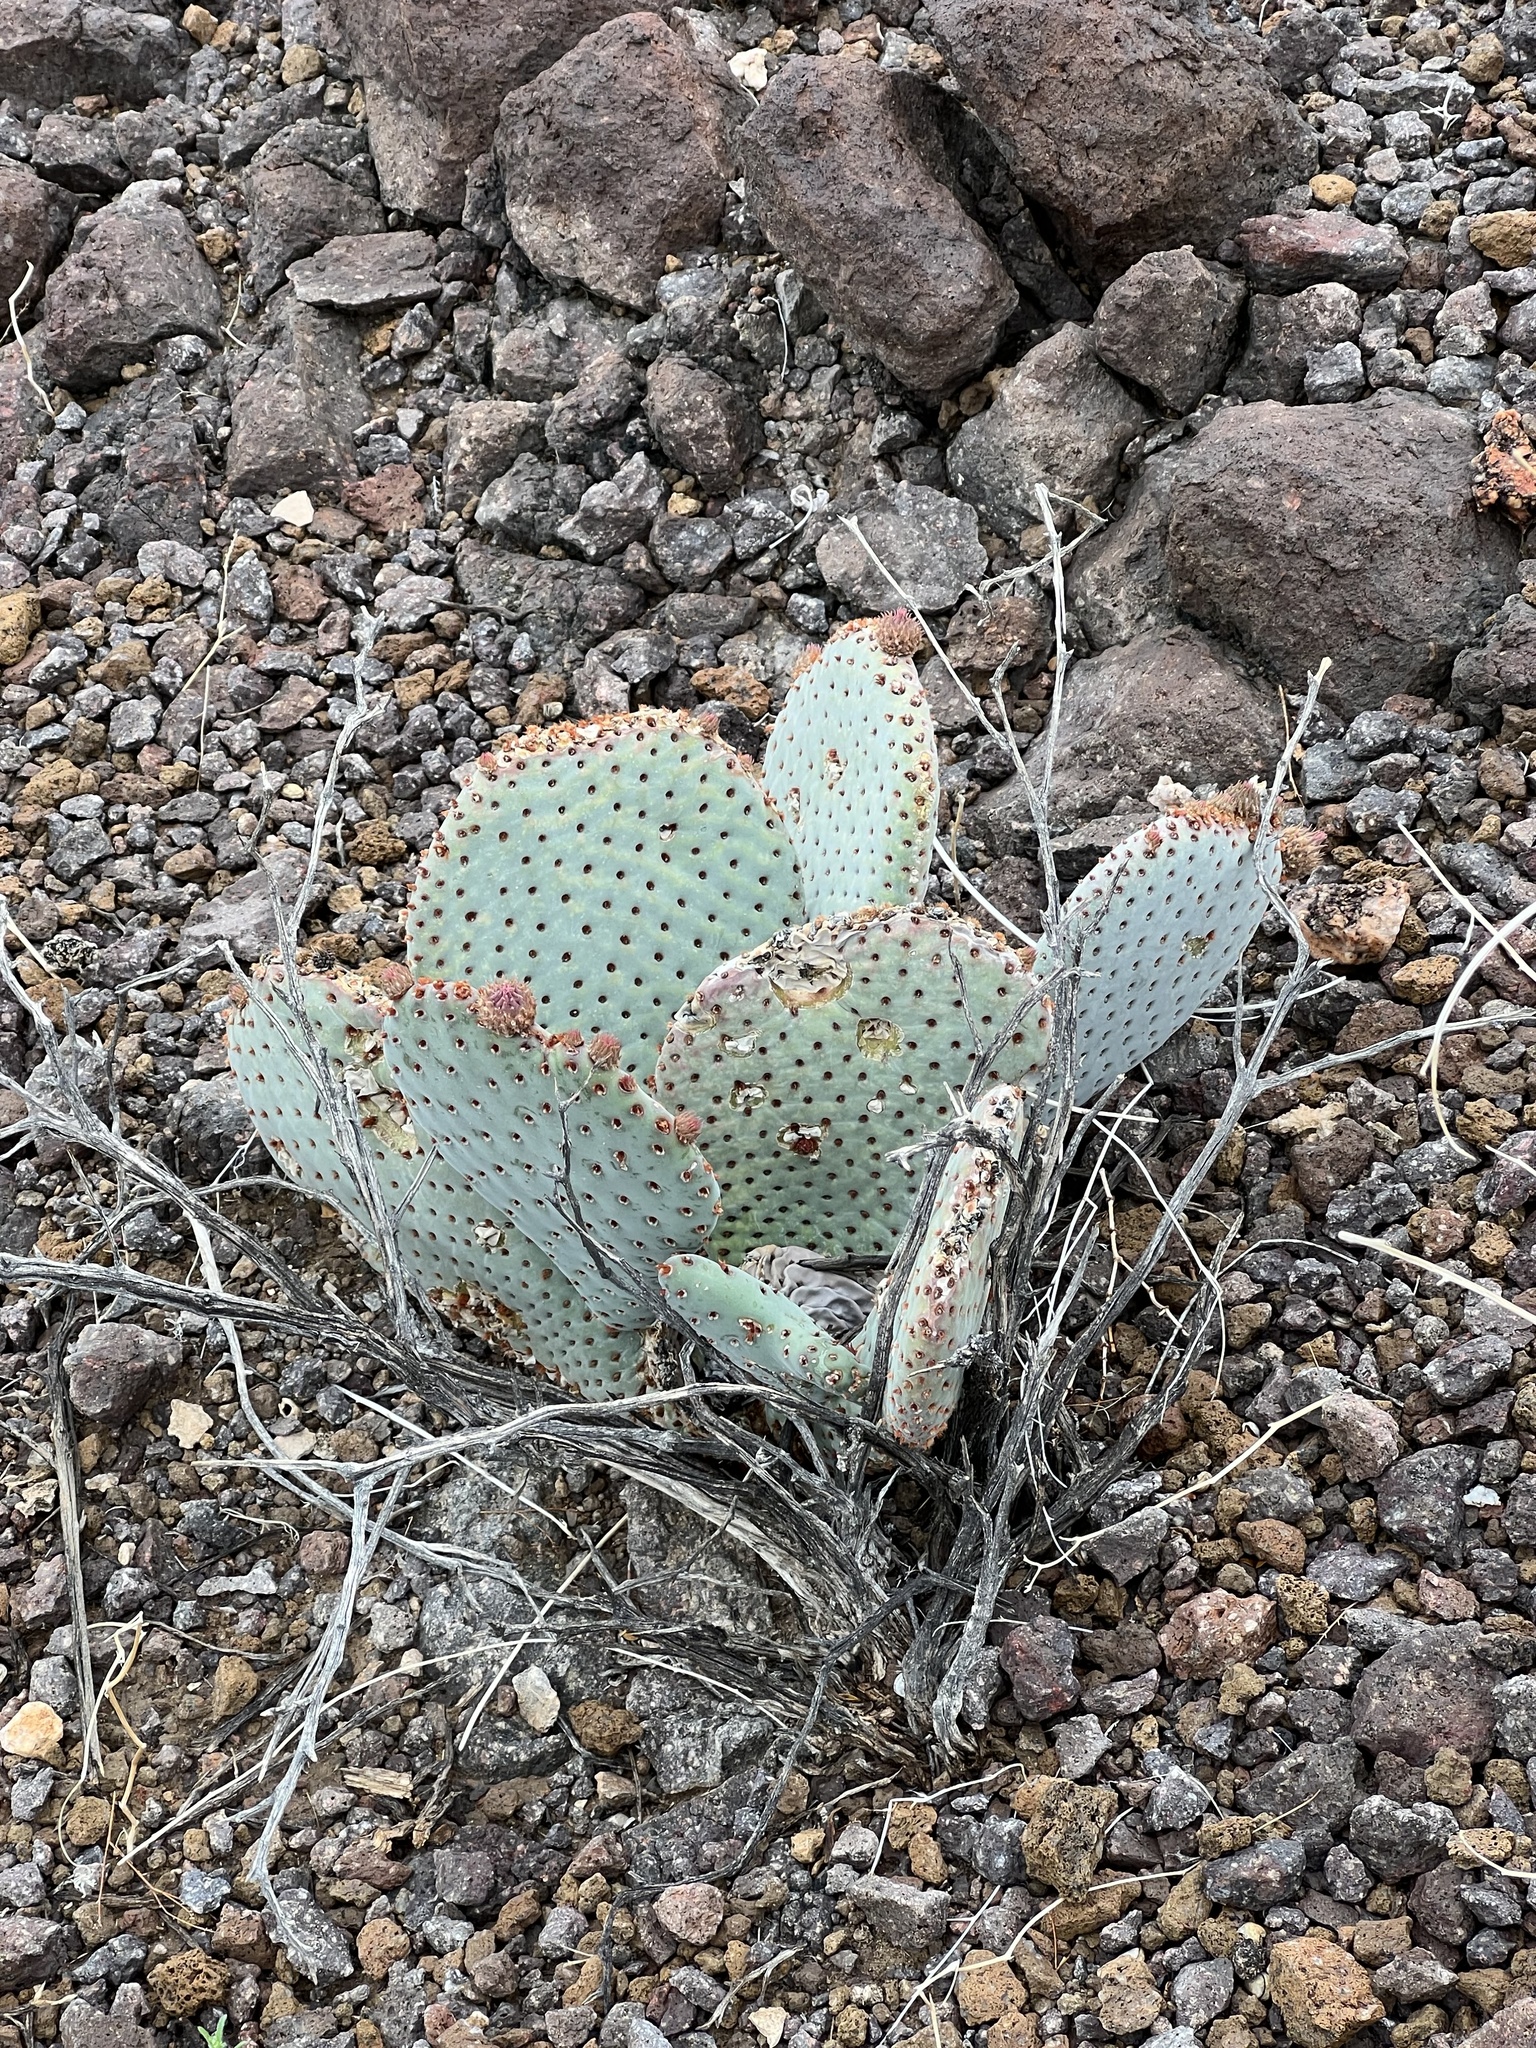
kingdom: Plantae
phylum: Tracheophyta
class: Magnoliopsida
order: Caryophyllales
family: Cactaceae
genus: Opuntia
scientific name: Opuntia basilaris
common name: Beavertail prickly-pear
